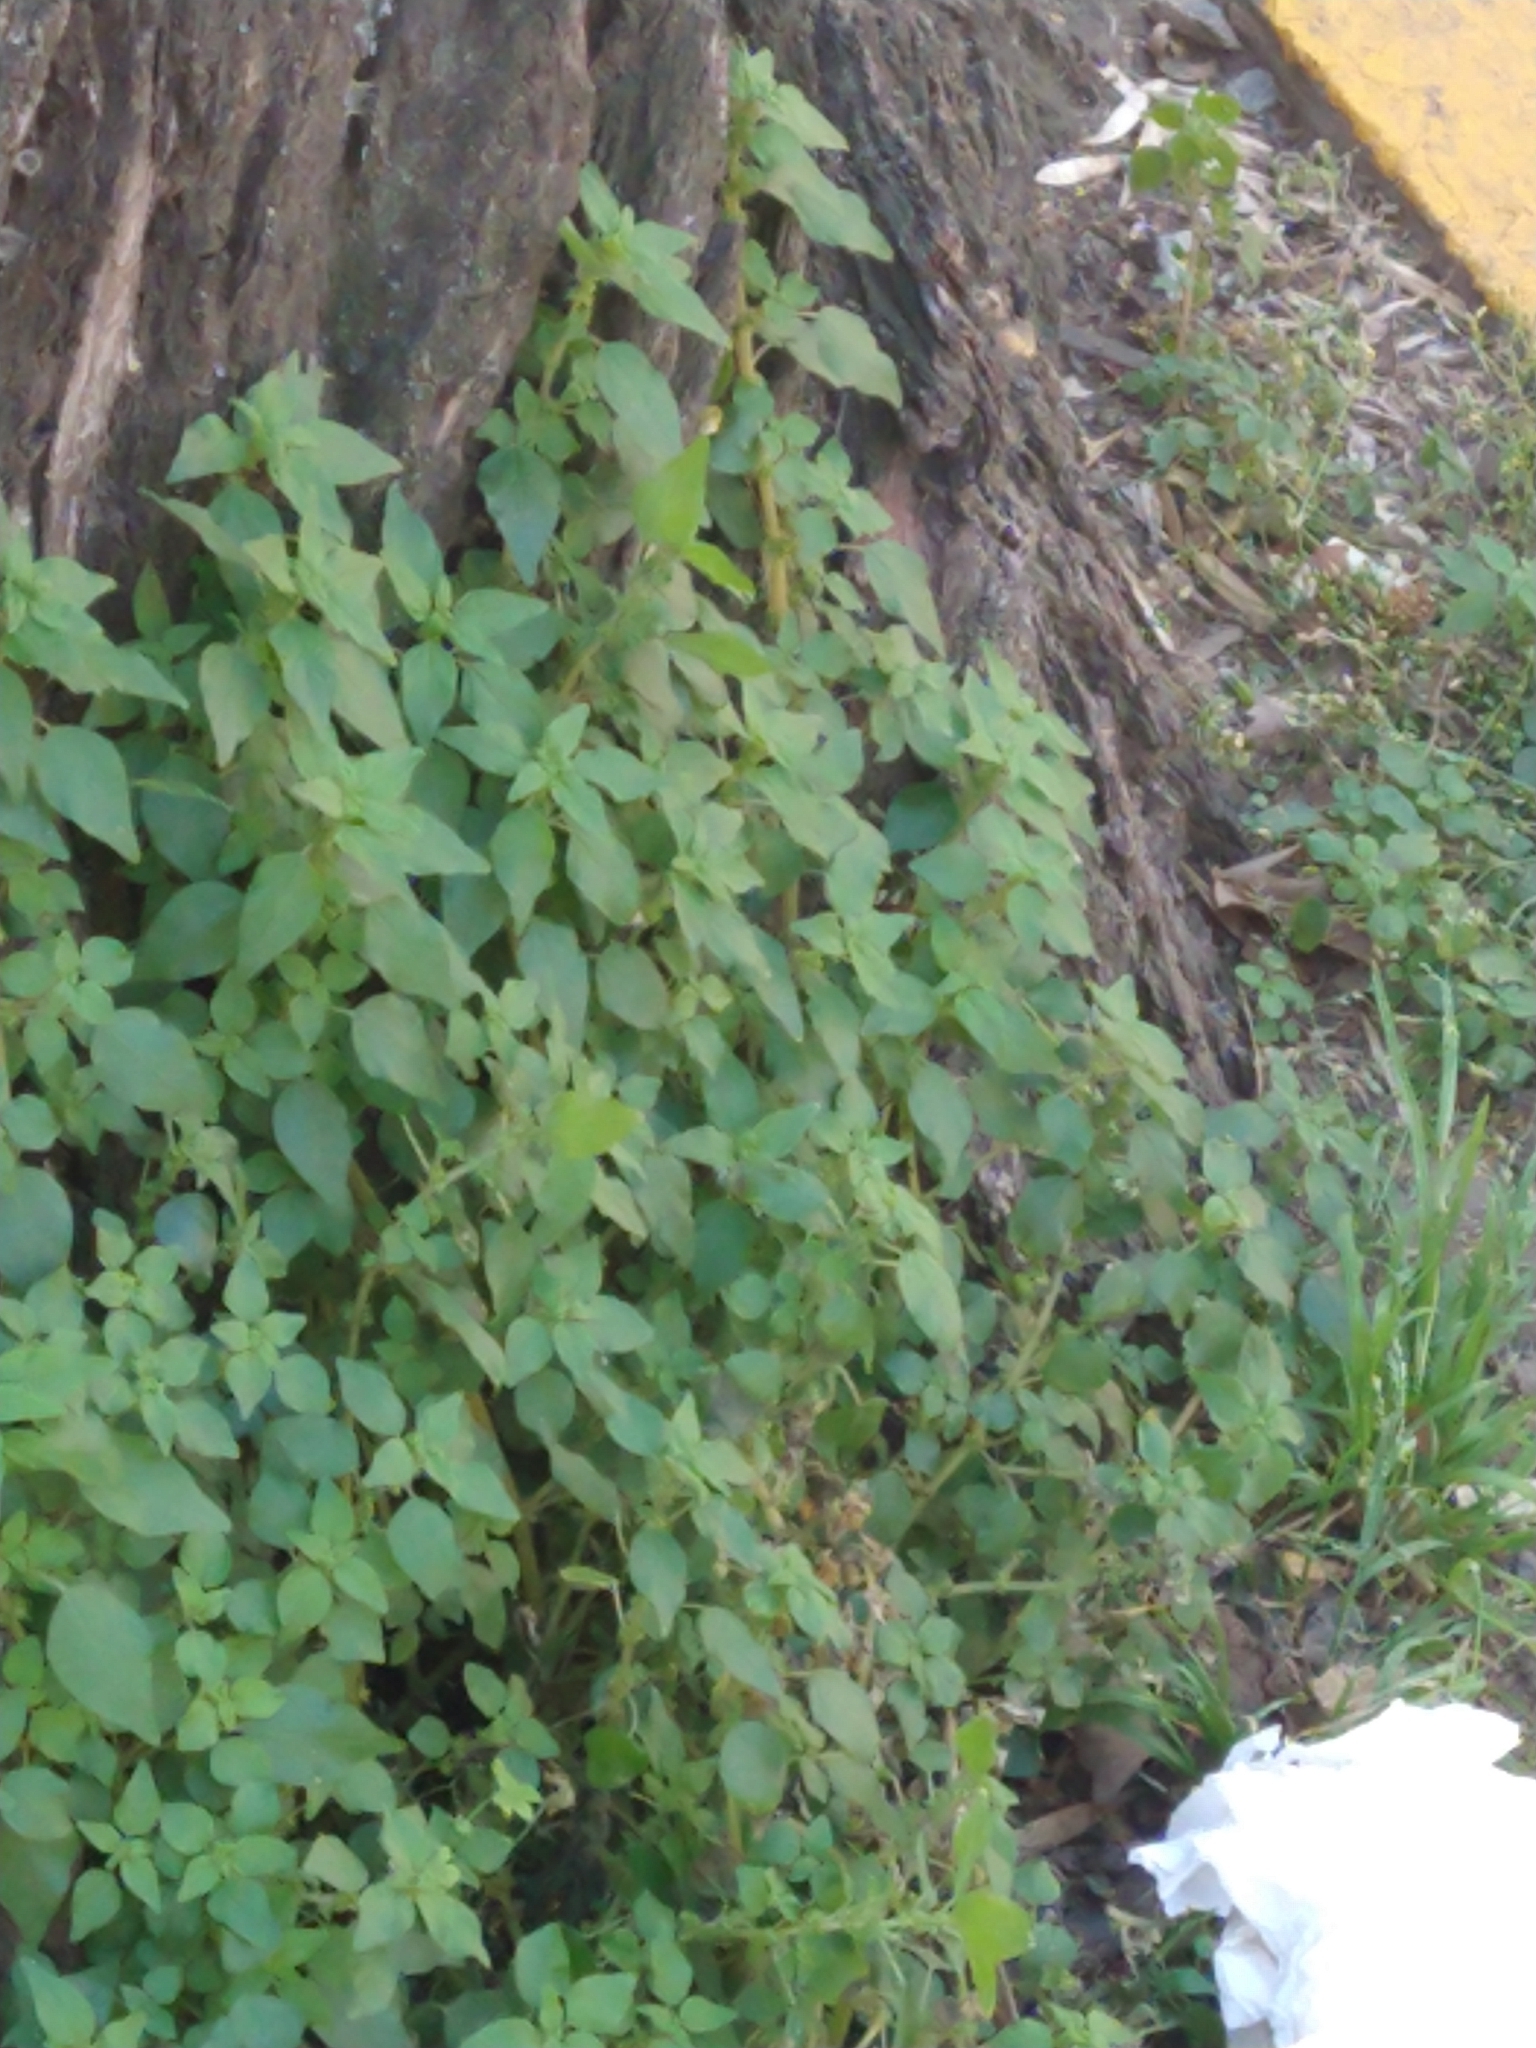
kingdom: Plantae
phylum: Tracheophyta
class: Magnoliopsida
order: Rosales
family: Urticaceae
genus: Parietaria
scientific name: Parietaria judaica
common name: Pellitory-of-the-wall
